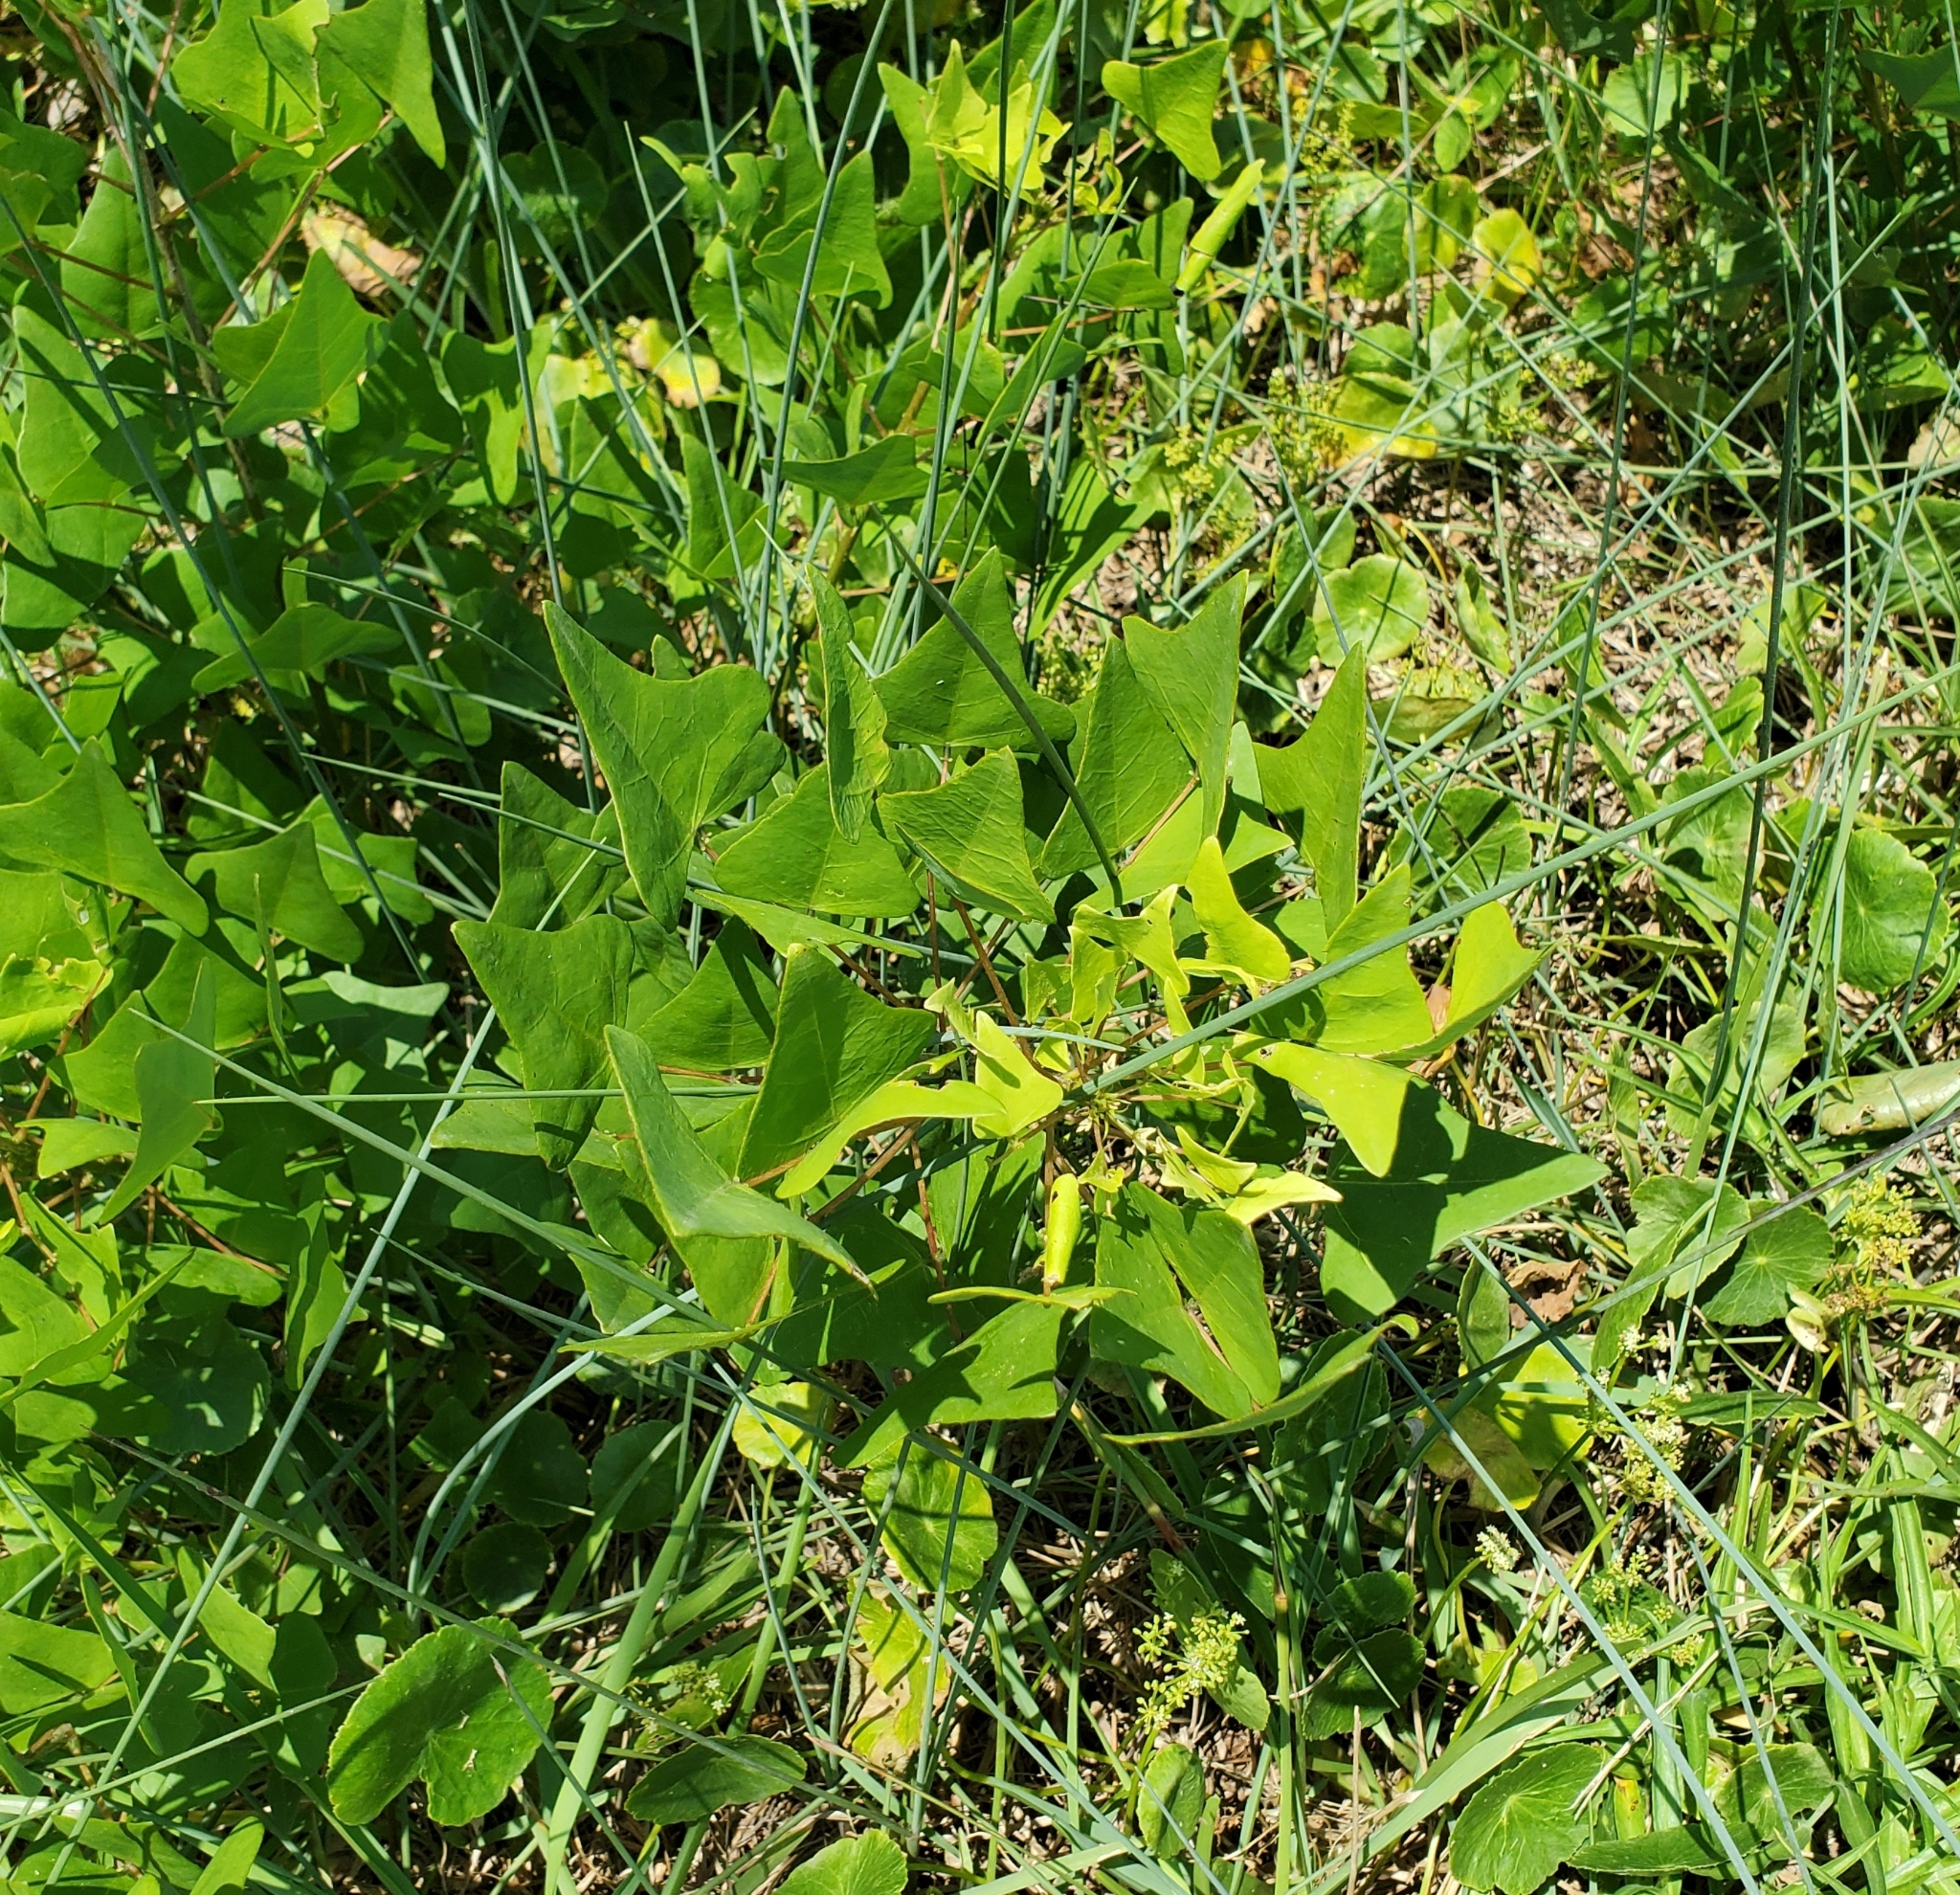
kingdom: Plantae
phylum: Tracheophyta
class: Magnoliopsida
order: Fabales
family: Fabaceae
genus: Erythrina
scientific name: Erythrina herbacea
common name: Coral-bean
